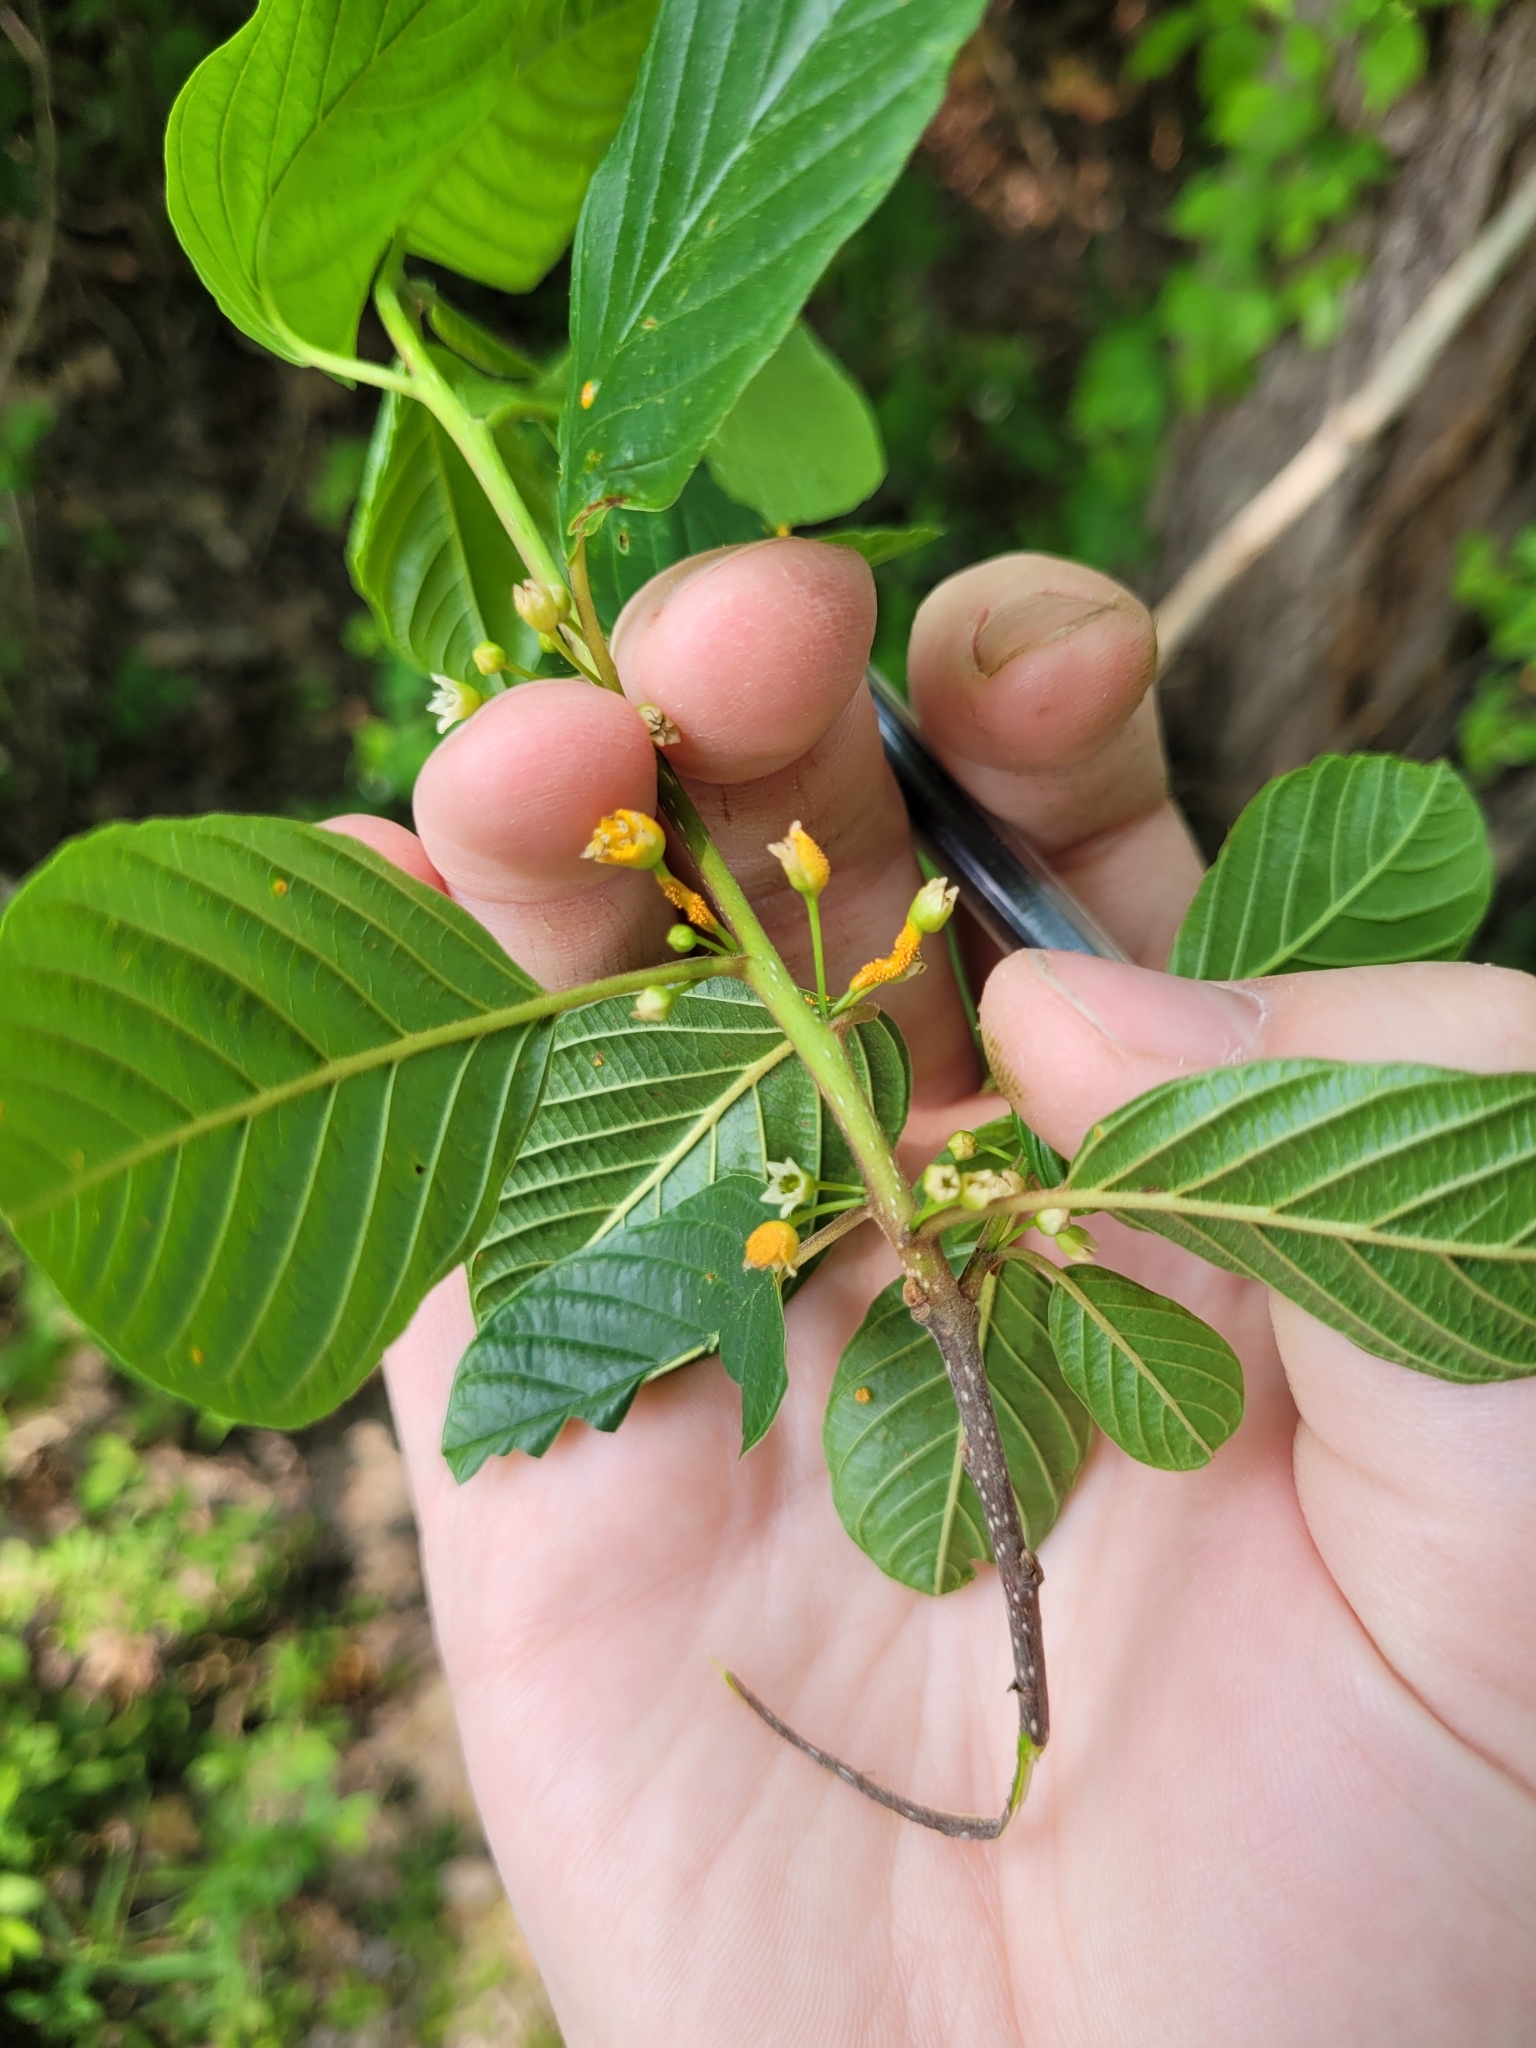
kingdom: Fungi
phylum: Basidiomycota
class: Pucciniomycetes
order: Pucciniales
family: Pucciniaceae
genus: Puccinia
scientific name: Puccinia coronata
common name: Crown rust
